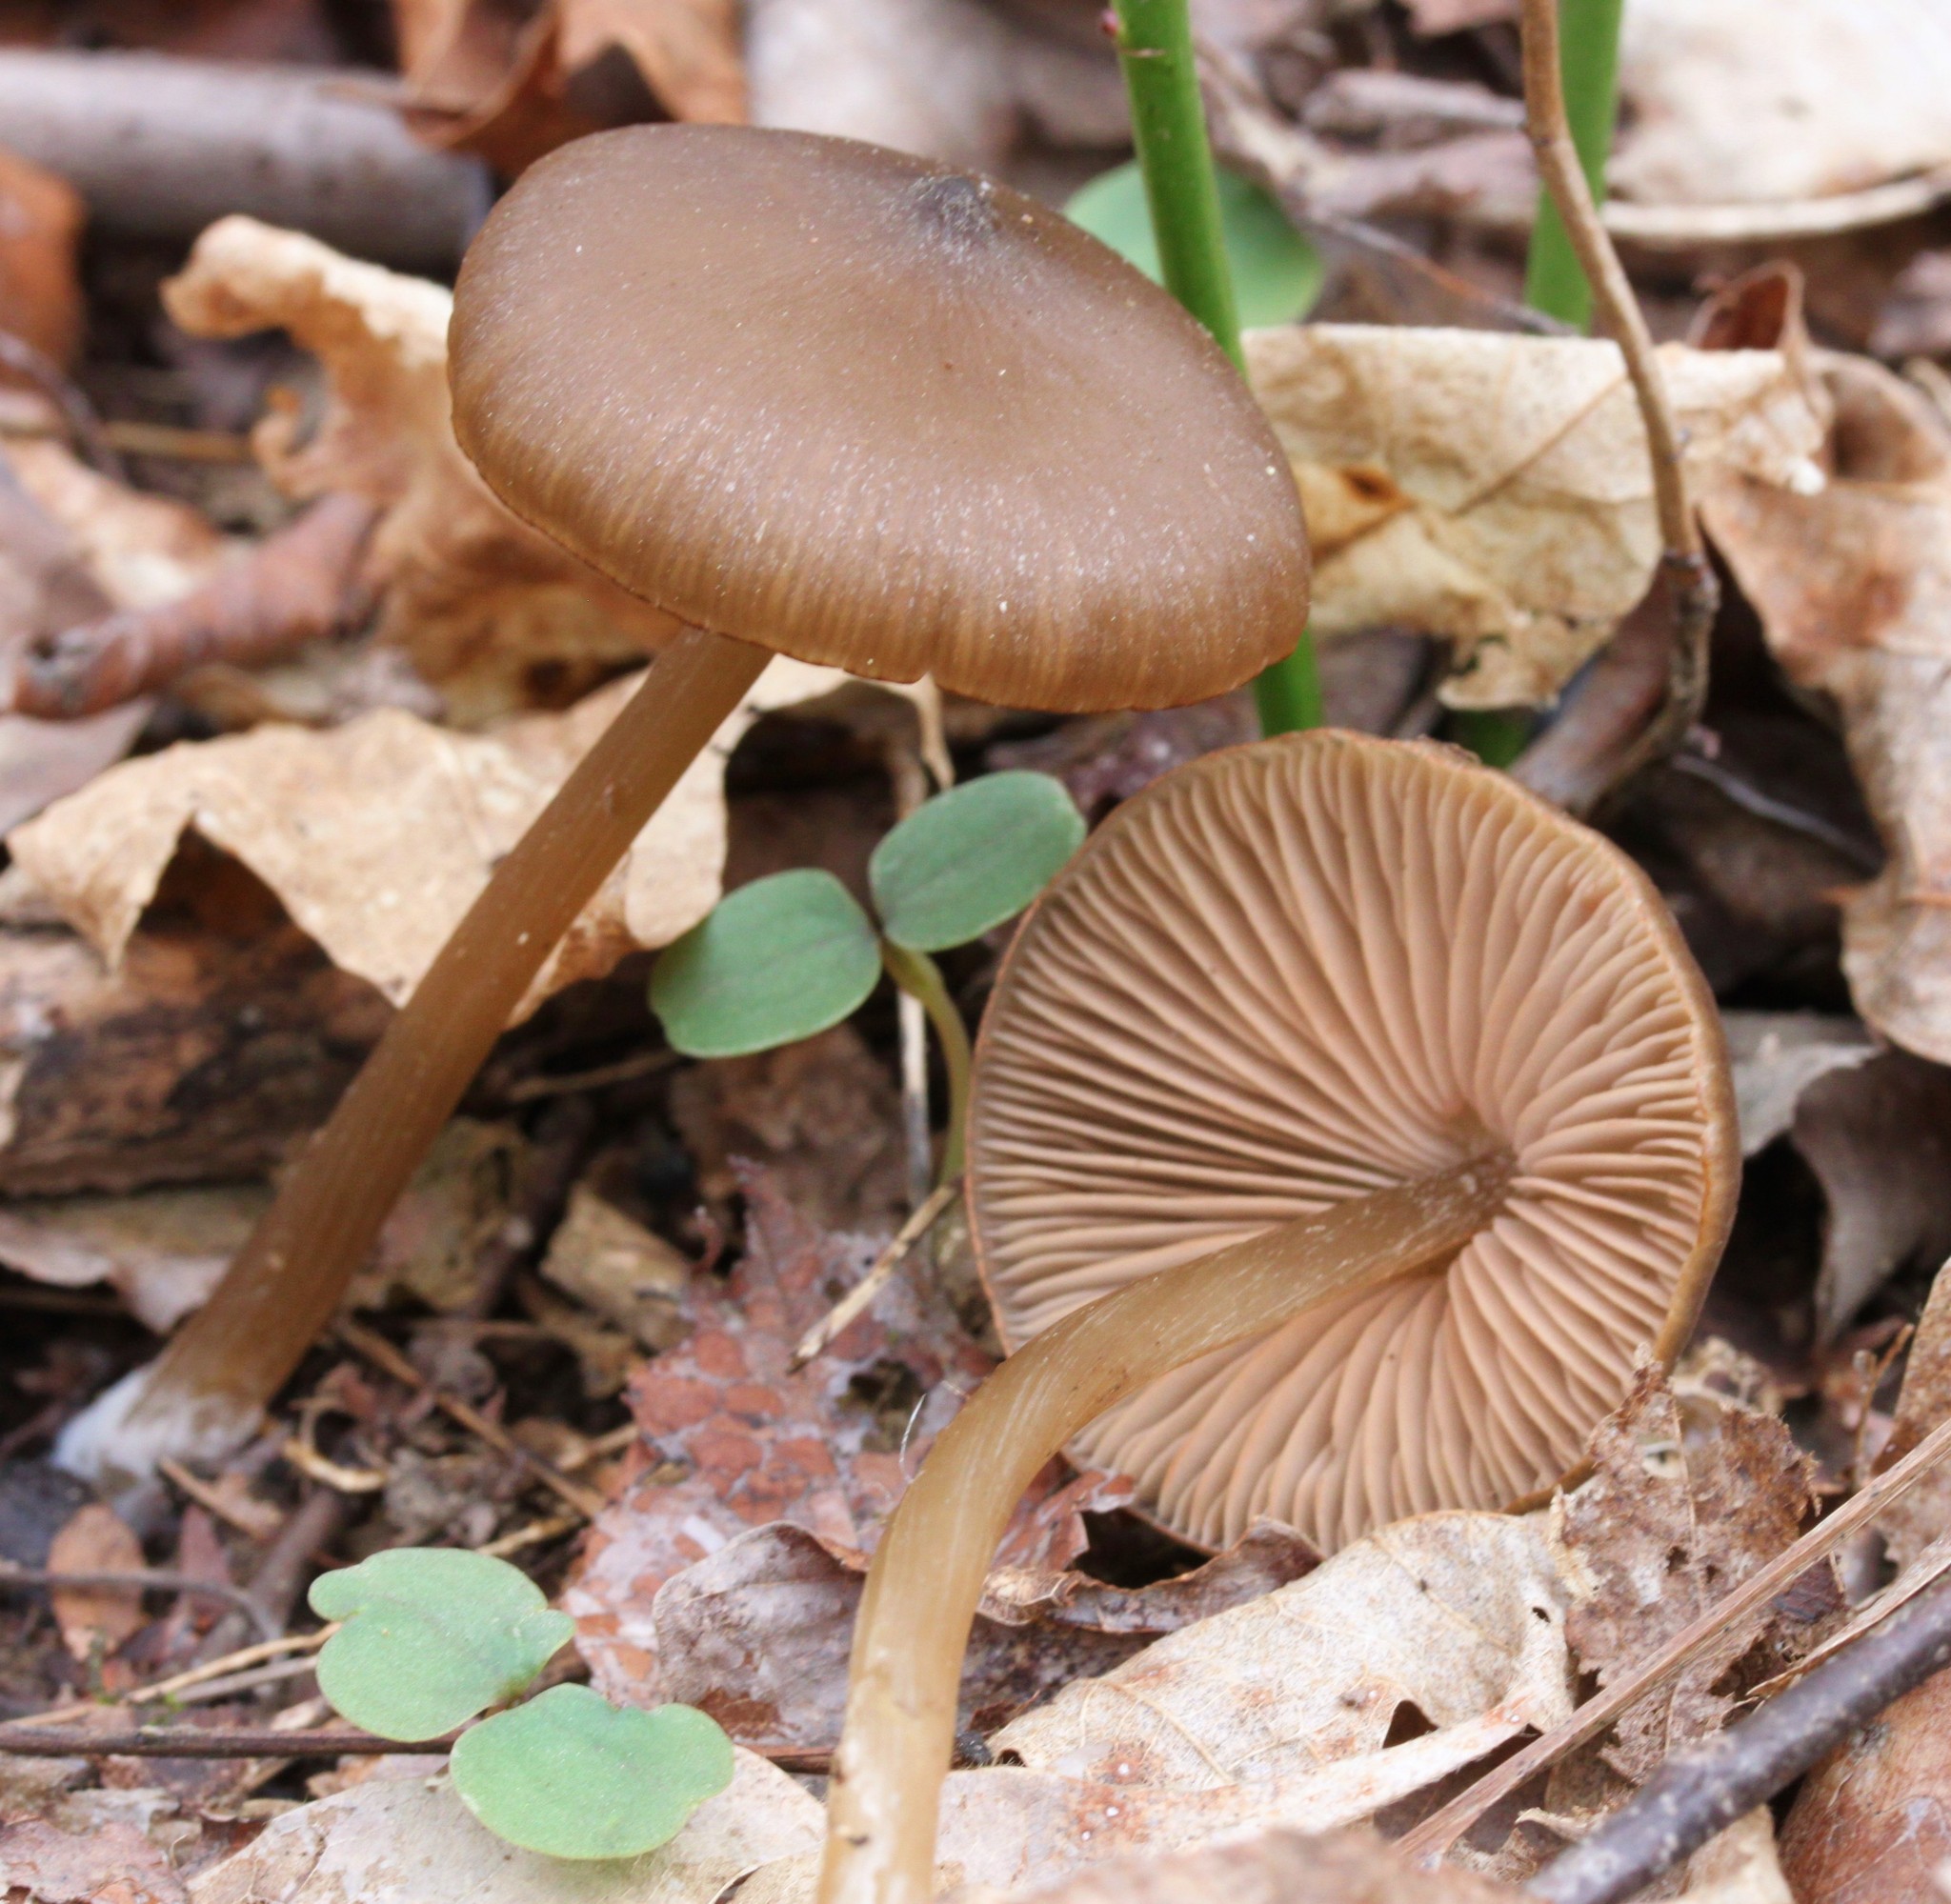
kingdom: Fungi
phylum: Basidiomycota
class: Agaricomycetes
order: Agaricales
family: Entolomataceae
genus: Entoloma
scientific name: Entoloma vernum
